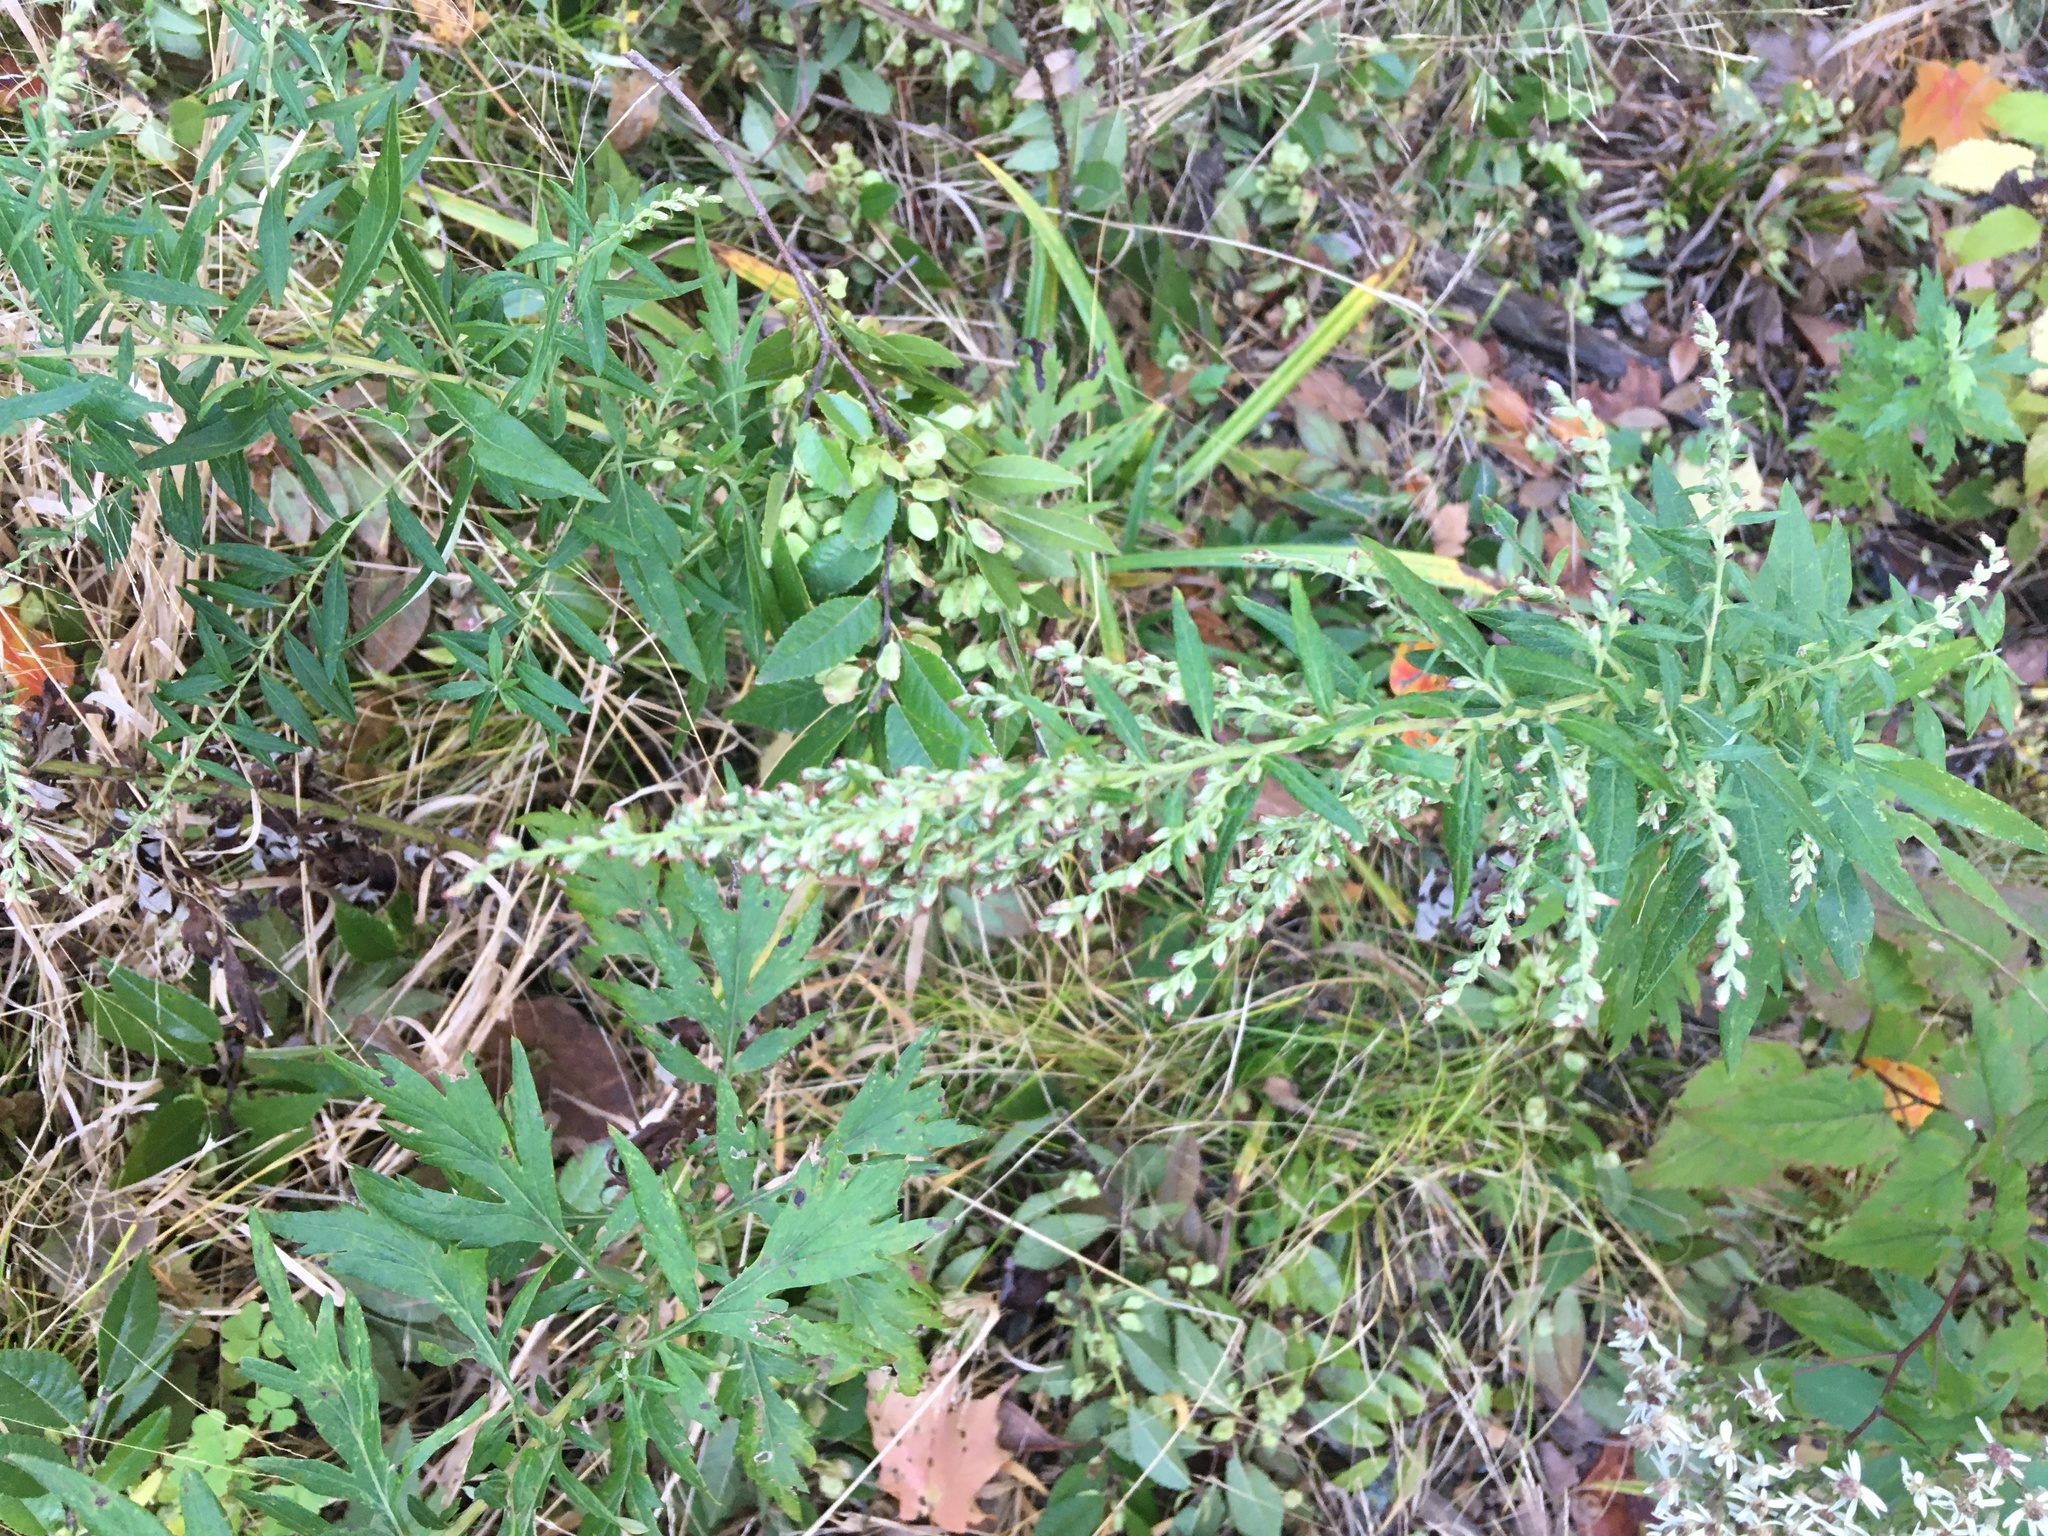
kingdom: Plantae
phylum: Tracheophyta
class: Magnoliopsida
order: Asterales
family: Asteraceae
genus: Artemisia
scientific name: Artemisia vulgaris
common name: Mugwort
